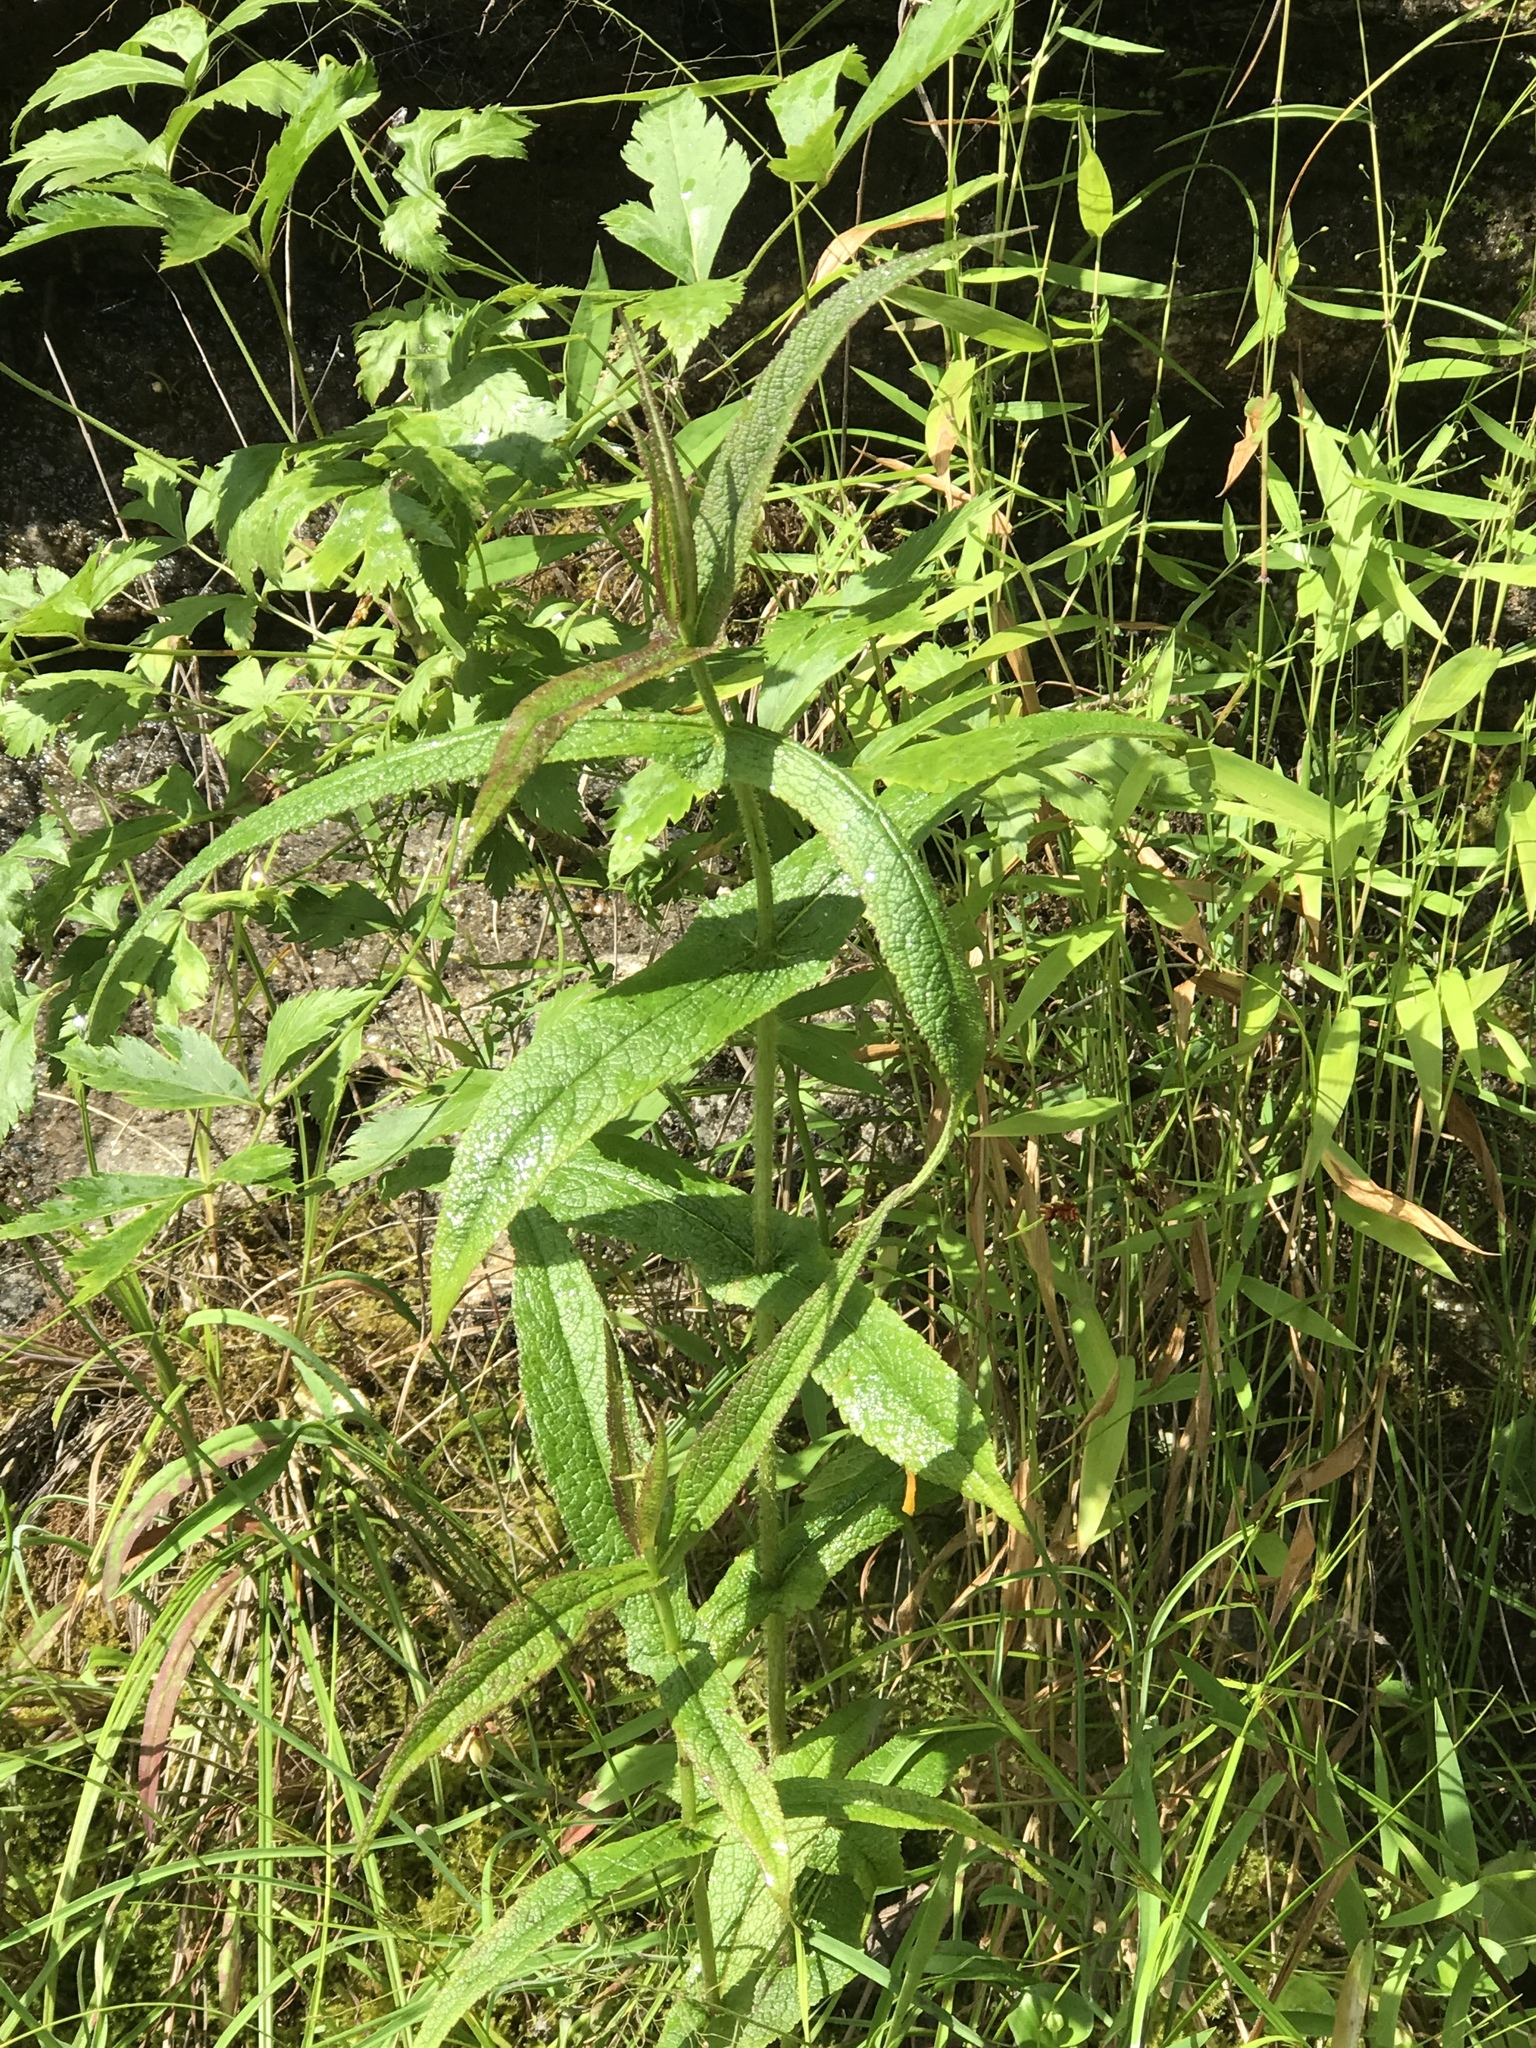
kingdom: Plantae
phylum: Tracheophyta
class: Magnoliopsida
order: Asterales
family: Asteraceae
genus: Eupatorium
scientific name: Eupatorium perfoliatum
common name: Boneset
